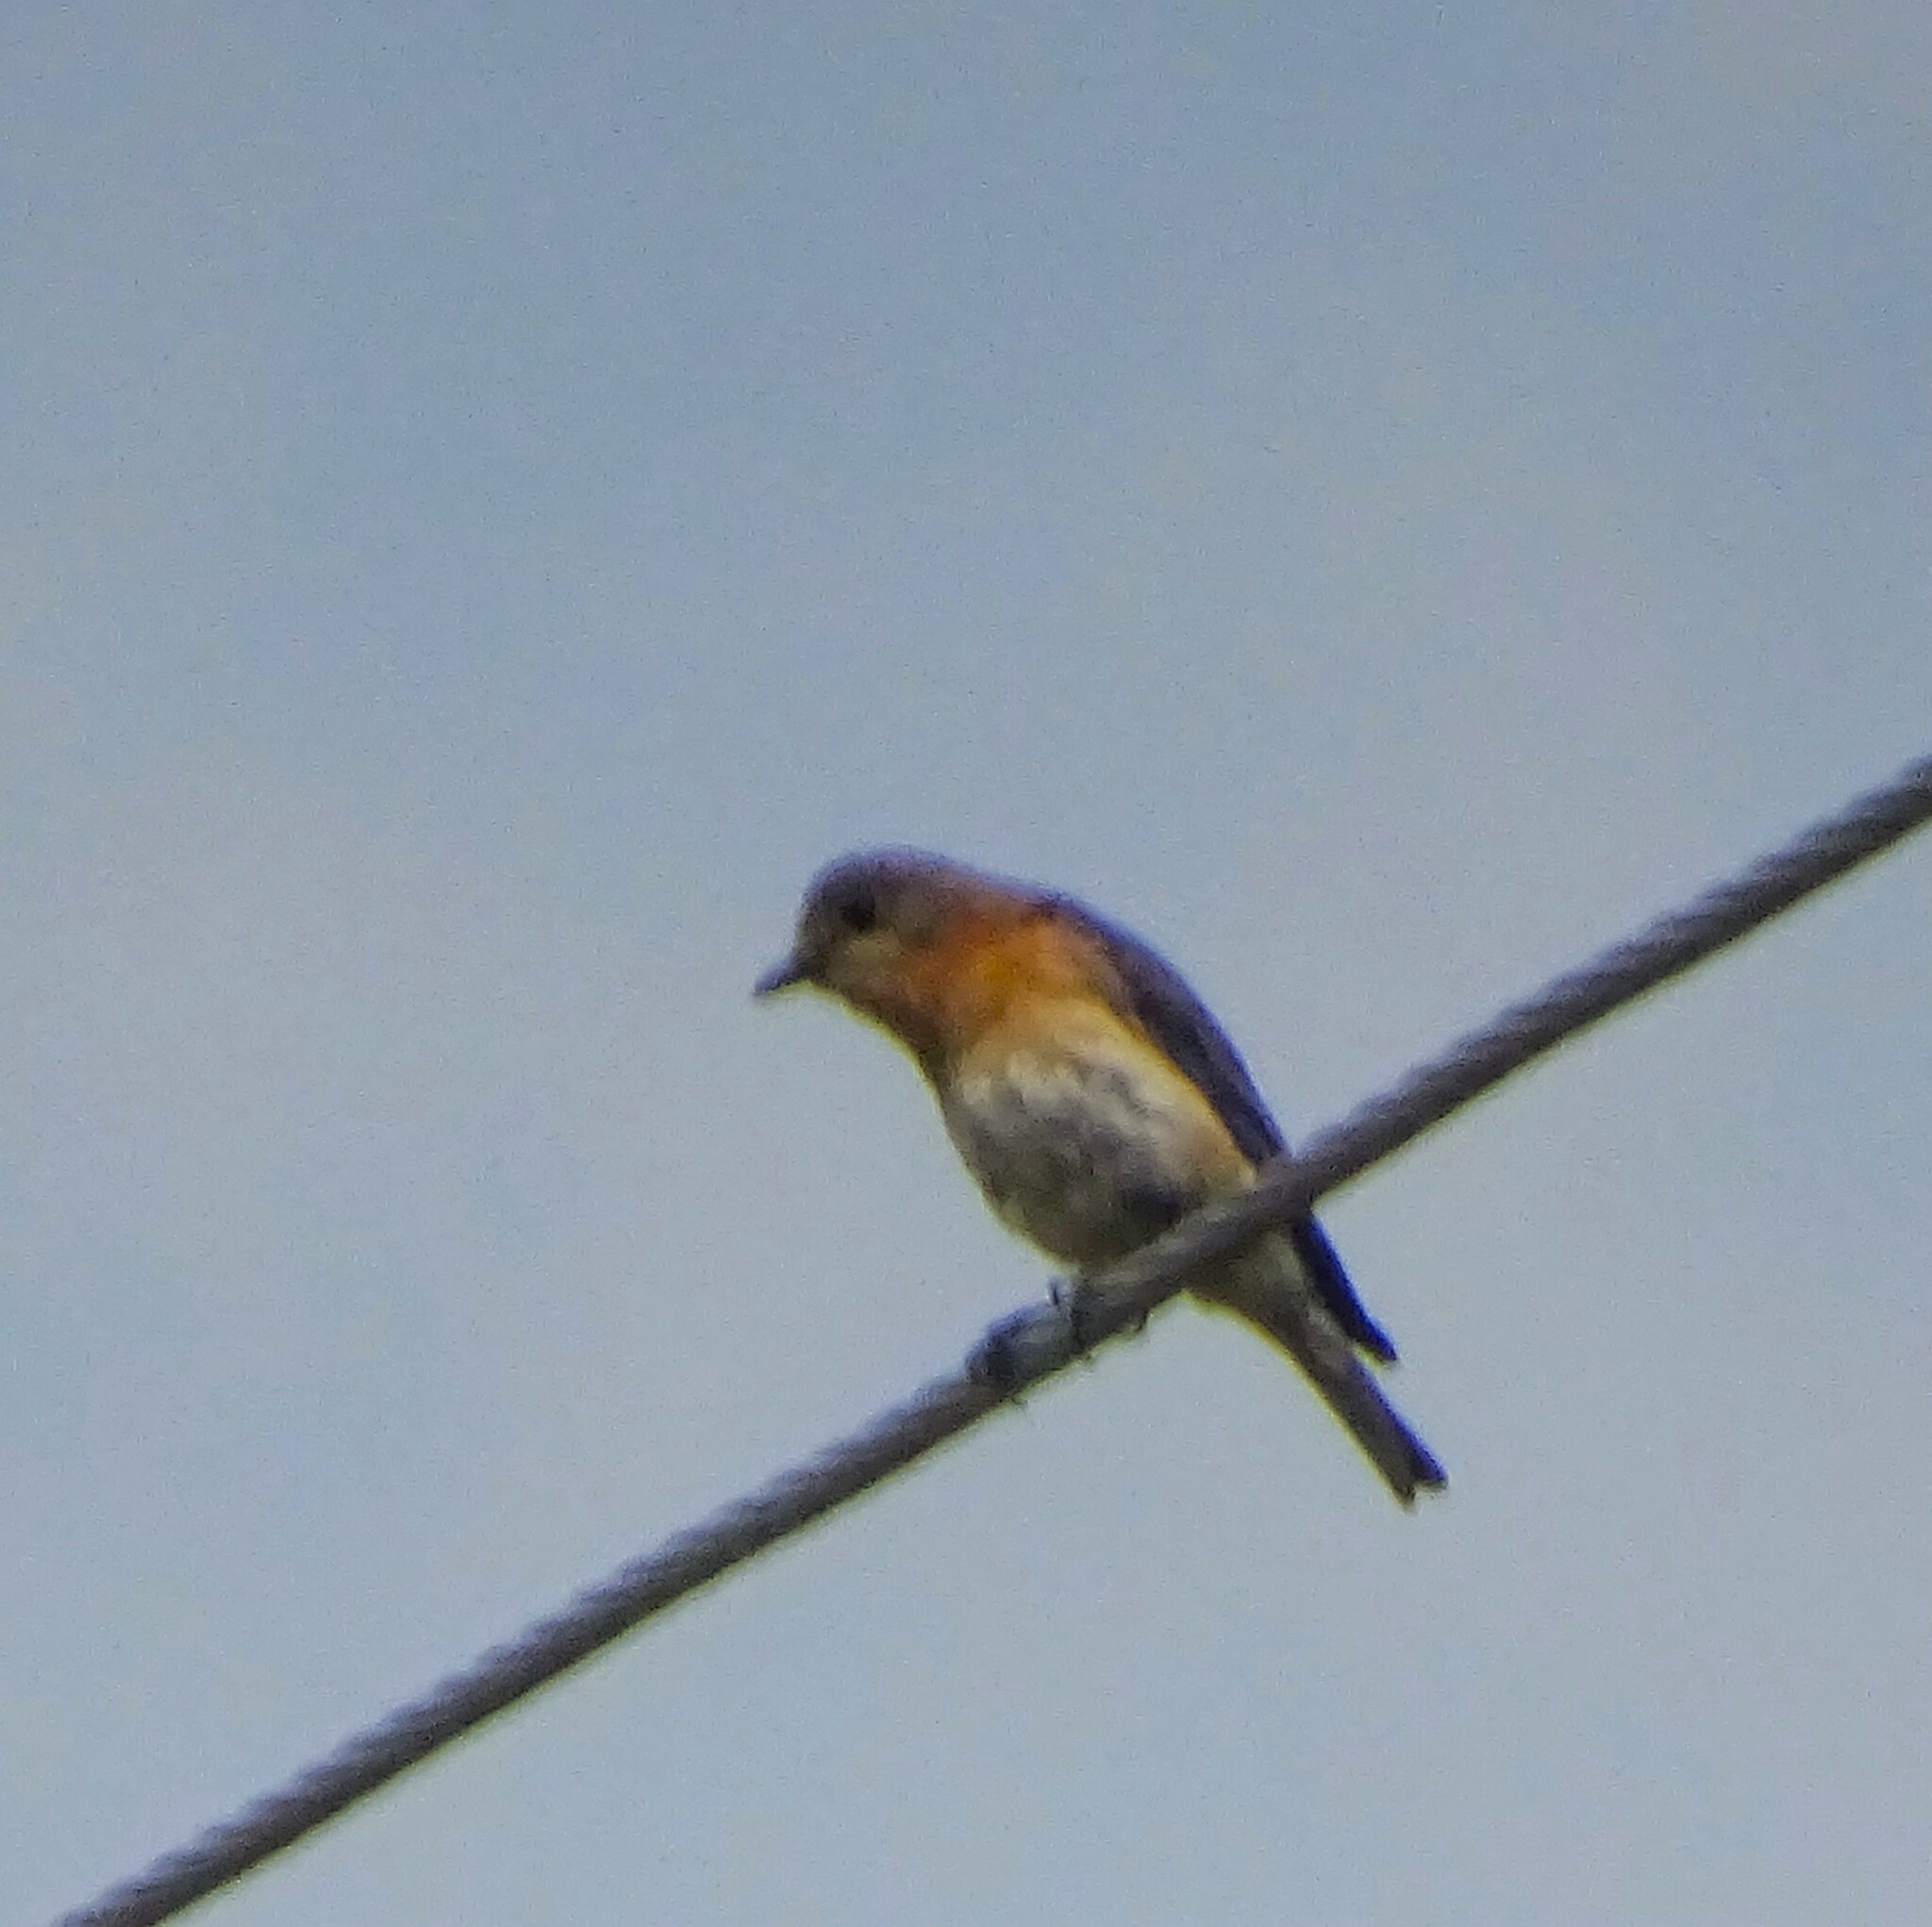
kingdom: Animalia
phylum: Chordata
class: Aves
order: Passeriformes
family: Turdidae
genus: Sialia
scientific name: Sialia sialis
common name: Eastern bluebird
